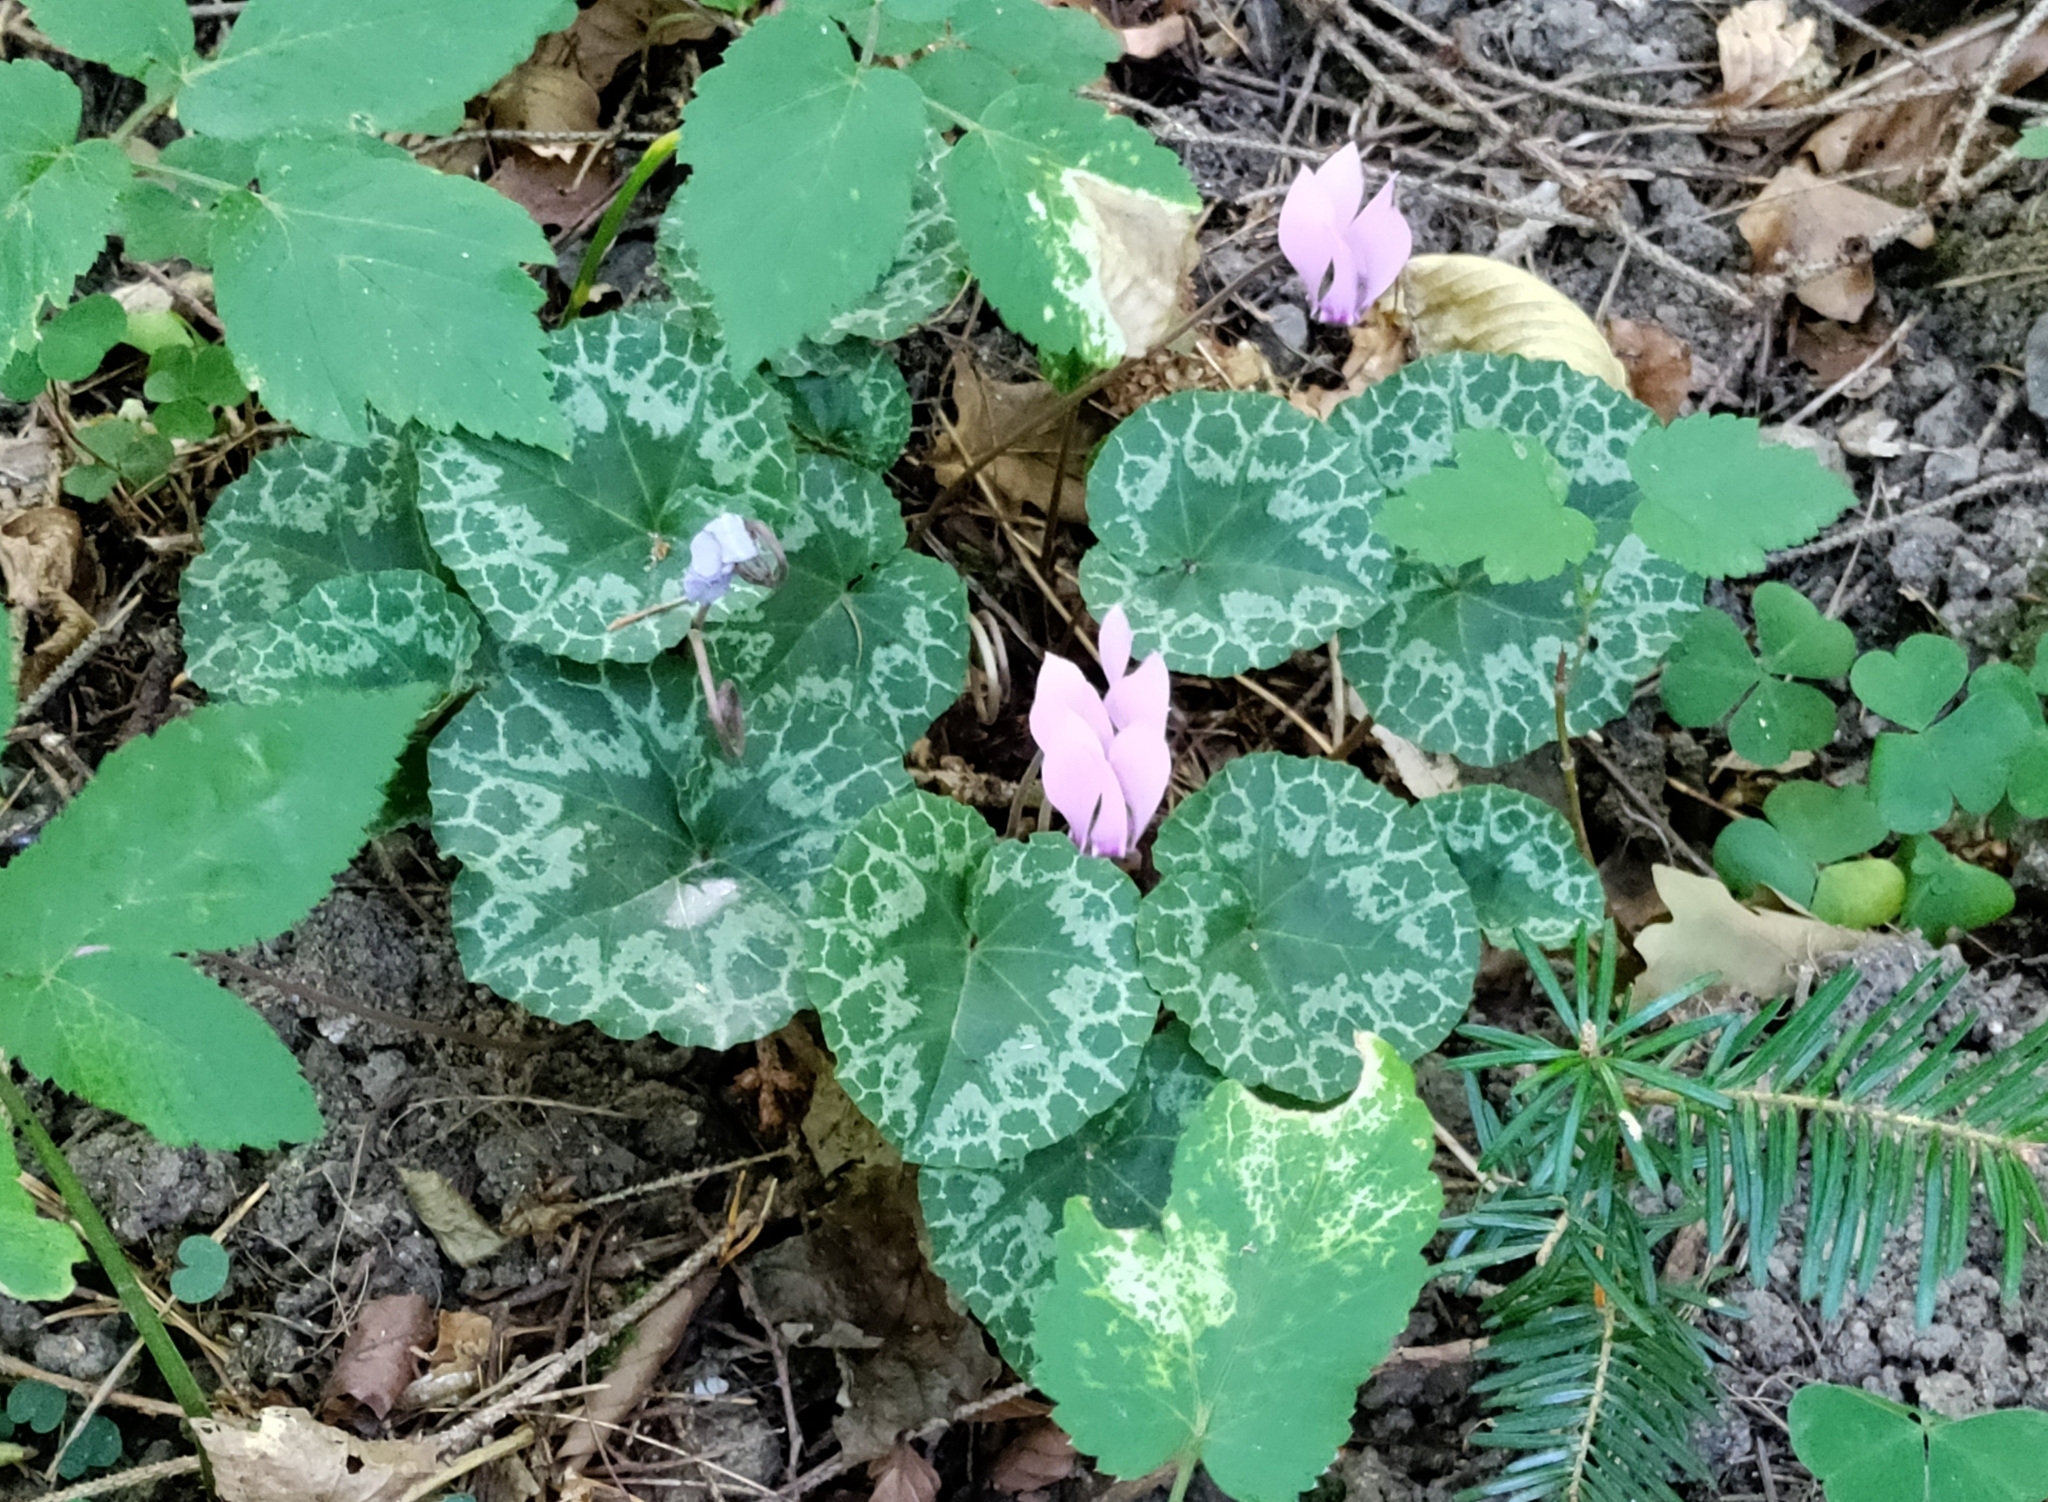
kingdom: Plantae
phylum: Tracheophyta
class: Magnoliopsida
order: Ericales
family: Primulaceae
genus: Cyclamen
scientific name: Cyclamen purpurascens
